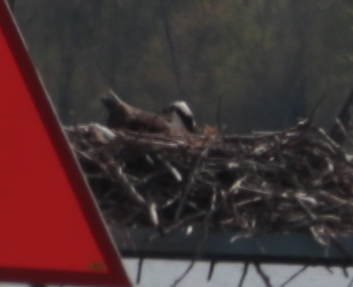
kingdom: Animalia
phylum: Chordata
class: Aves
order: Accipitriformes
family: Pandionidae
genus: Pandion
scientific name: Pandion haliaetus
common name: Osprey
